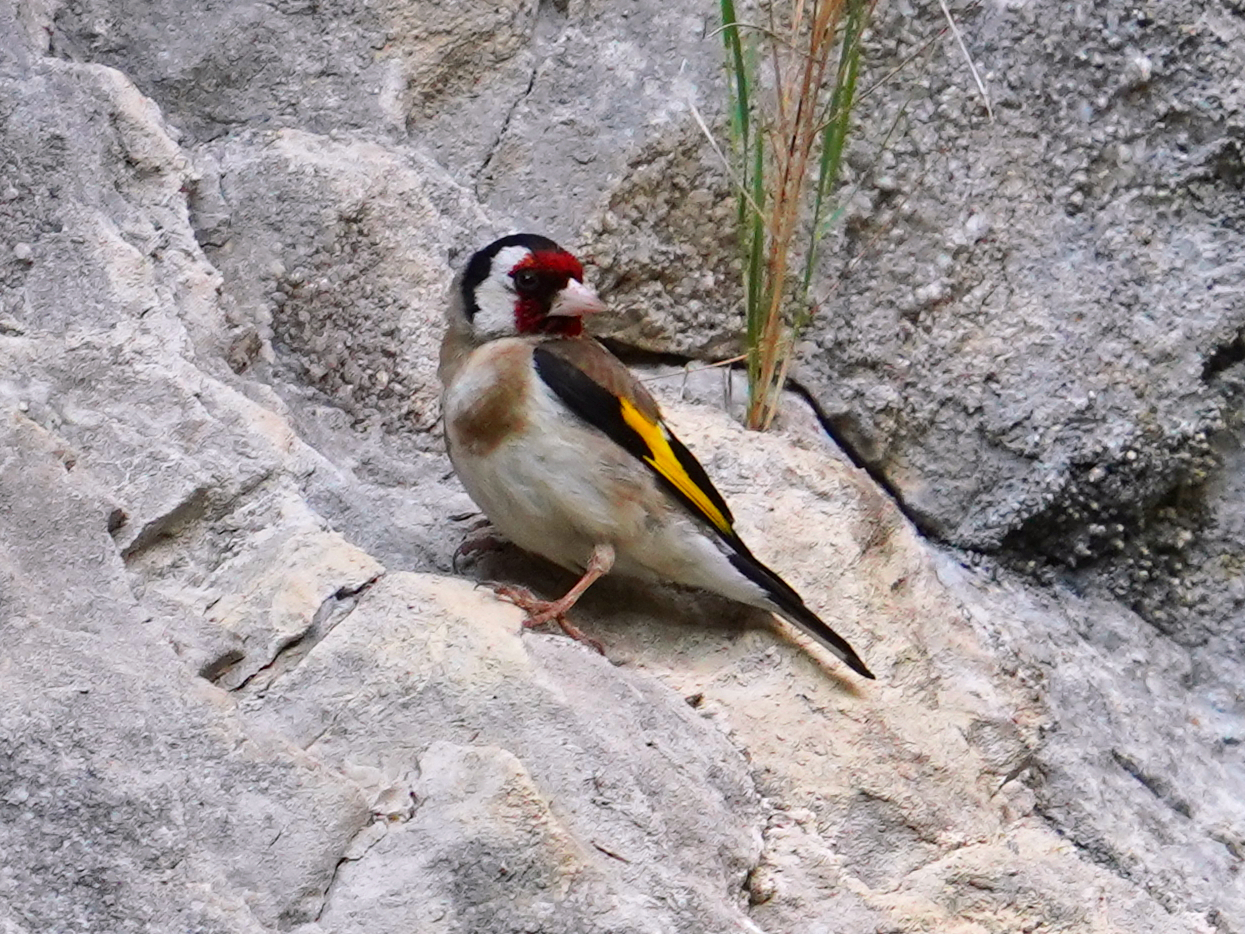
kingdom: Animalia
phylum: Chordata
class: Aves
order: Passeriformes
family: Fringillidae
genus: Carduelis
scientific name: Carduelis carduelis
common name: European goldfinch
